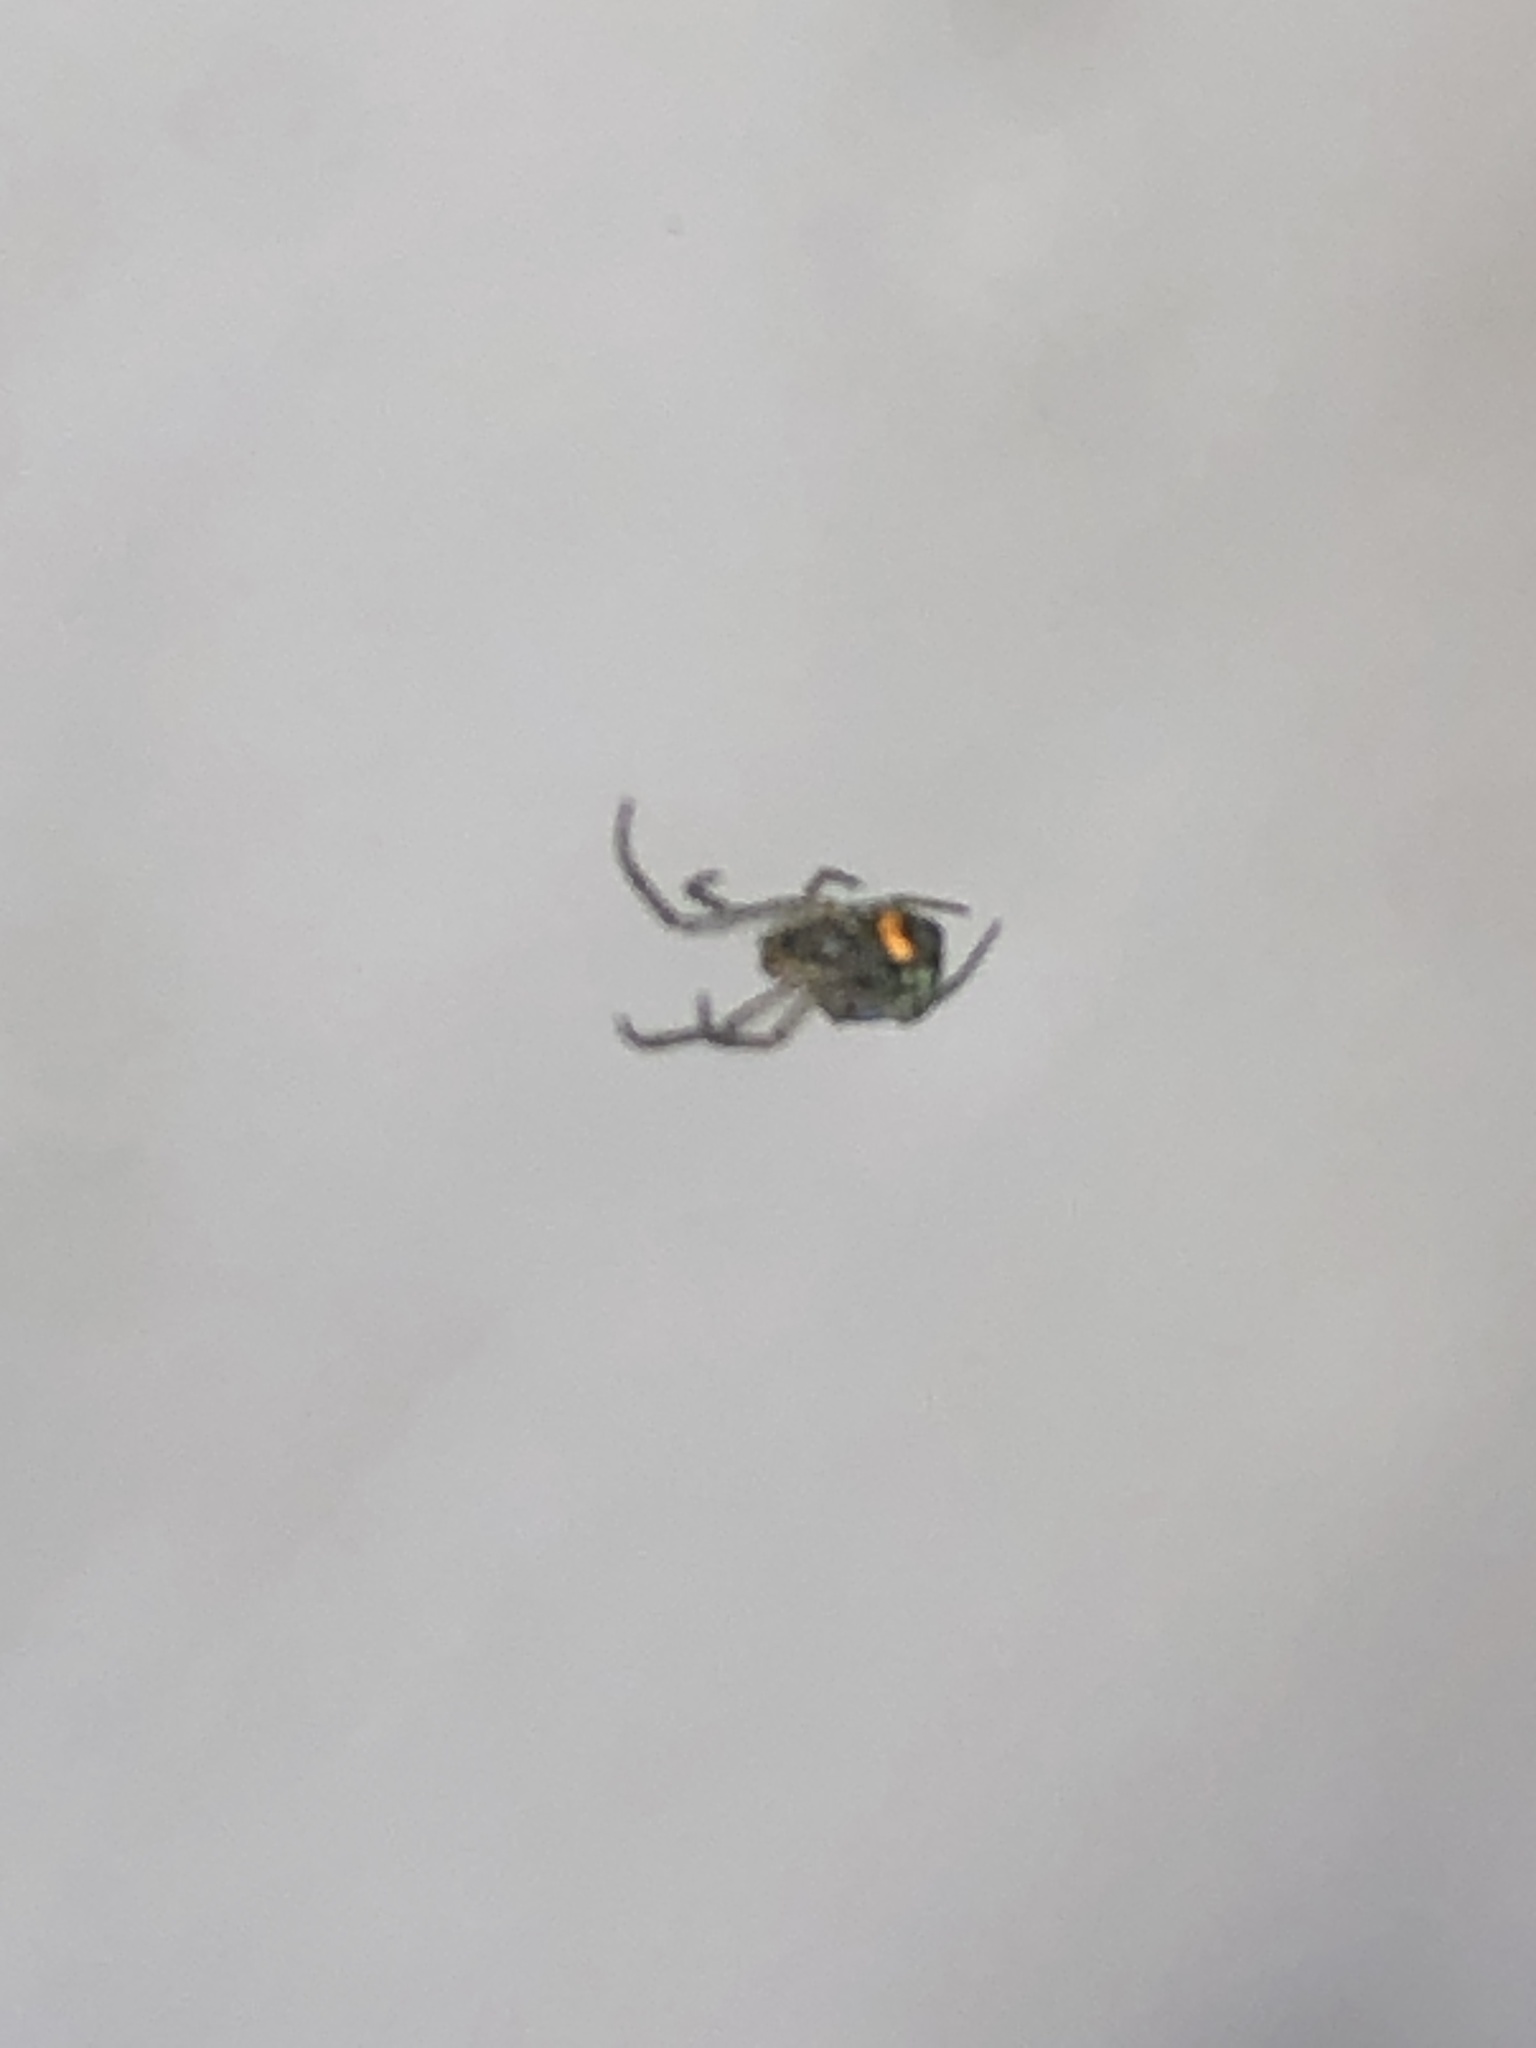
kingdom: Animalia
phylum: Arthropoda
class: Arachnida
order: Araneae
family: Tetragnathidae
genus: Leucauge
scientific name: Leucauge venusta
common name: Longjawed orb weavers
